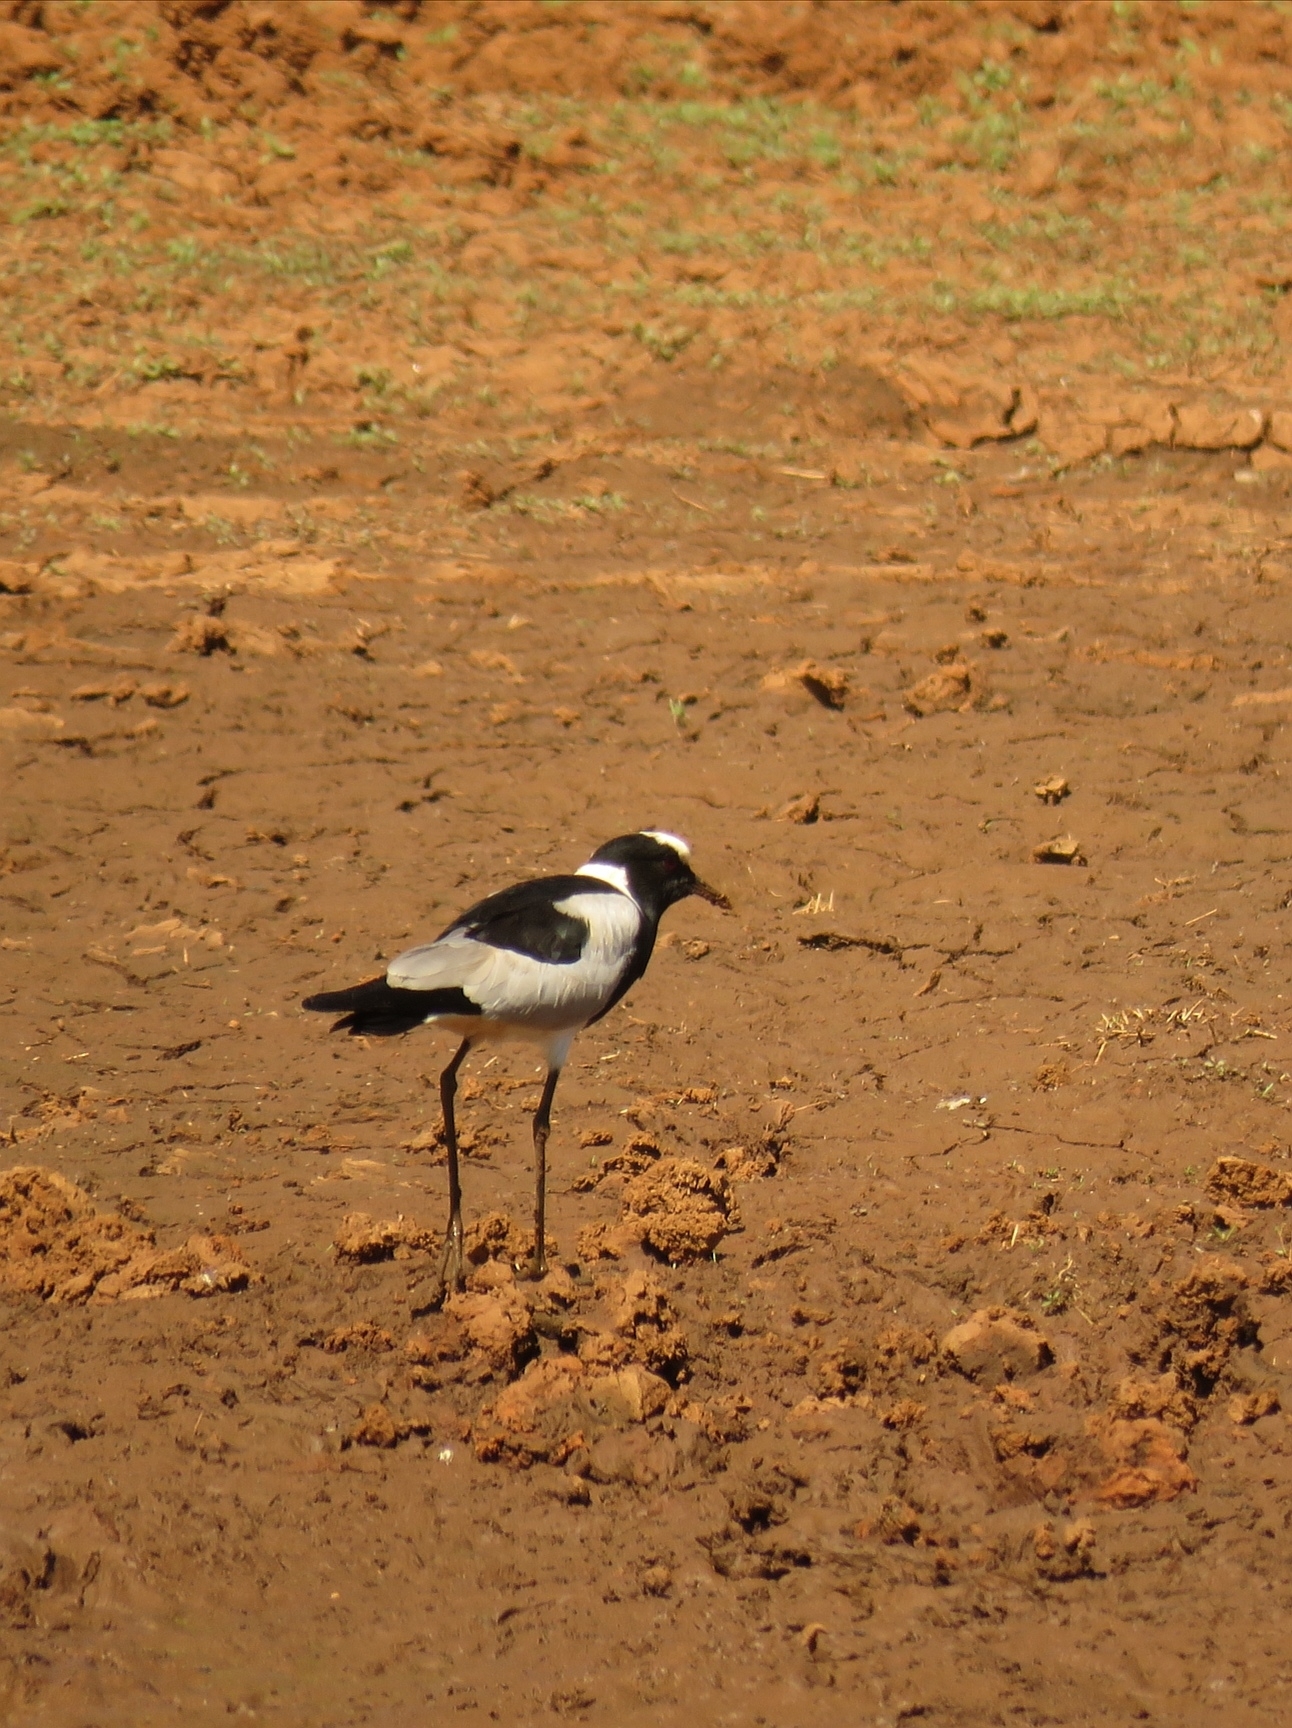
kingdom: Animalia
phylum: Chordata
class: Aves
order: Charadriiformes
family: Charadriidae
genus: Vanellus
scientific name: Vanellus armatus
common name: Blacksmith lapwing
